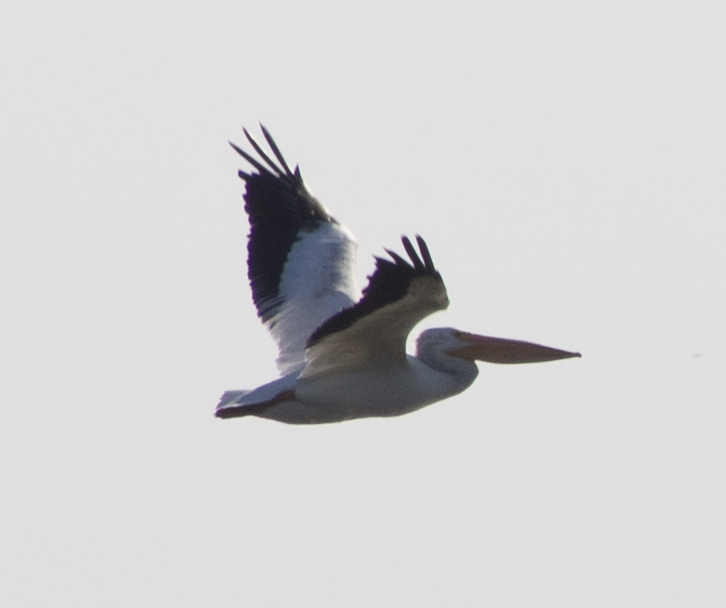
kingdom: Animalia
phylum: Chordata
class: Aves
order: Pelecaniformes
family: Pelecanidae
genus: Pelecanus
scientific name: Pelecanus erythrorhynchos
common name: American white pelican
